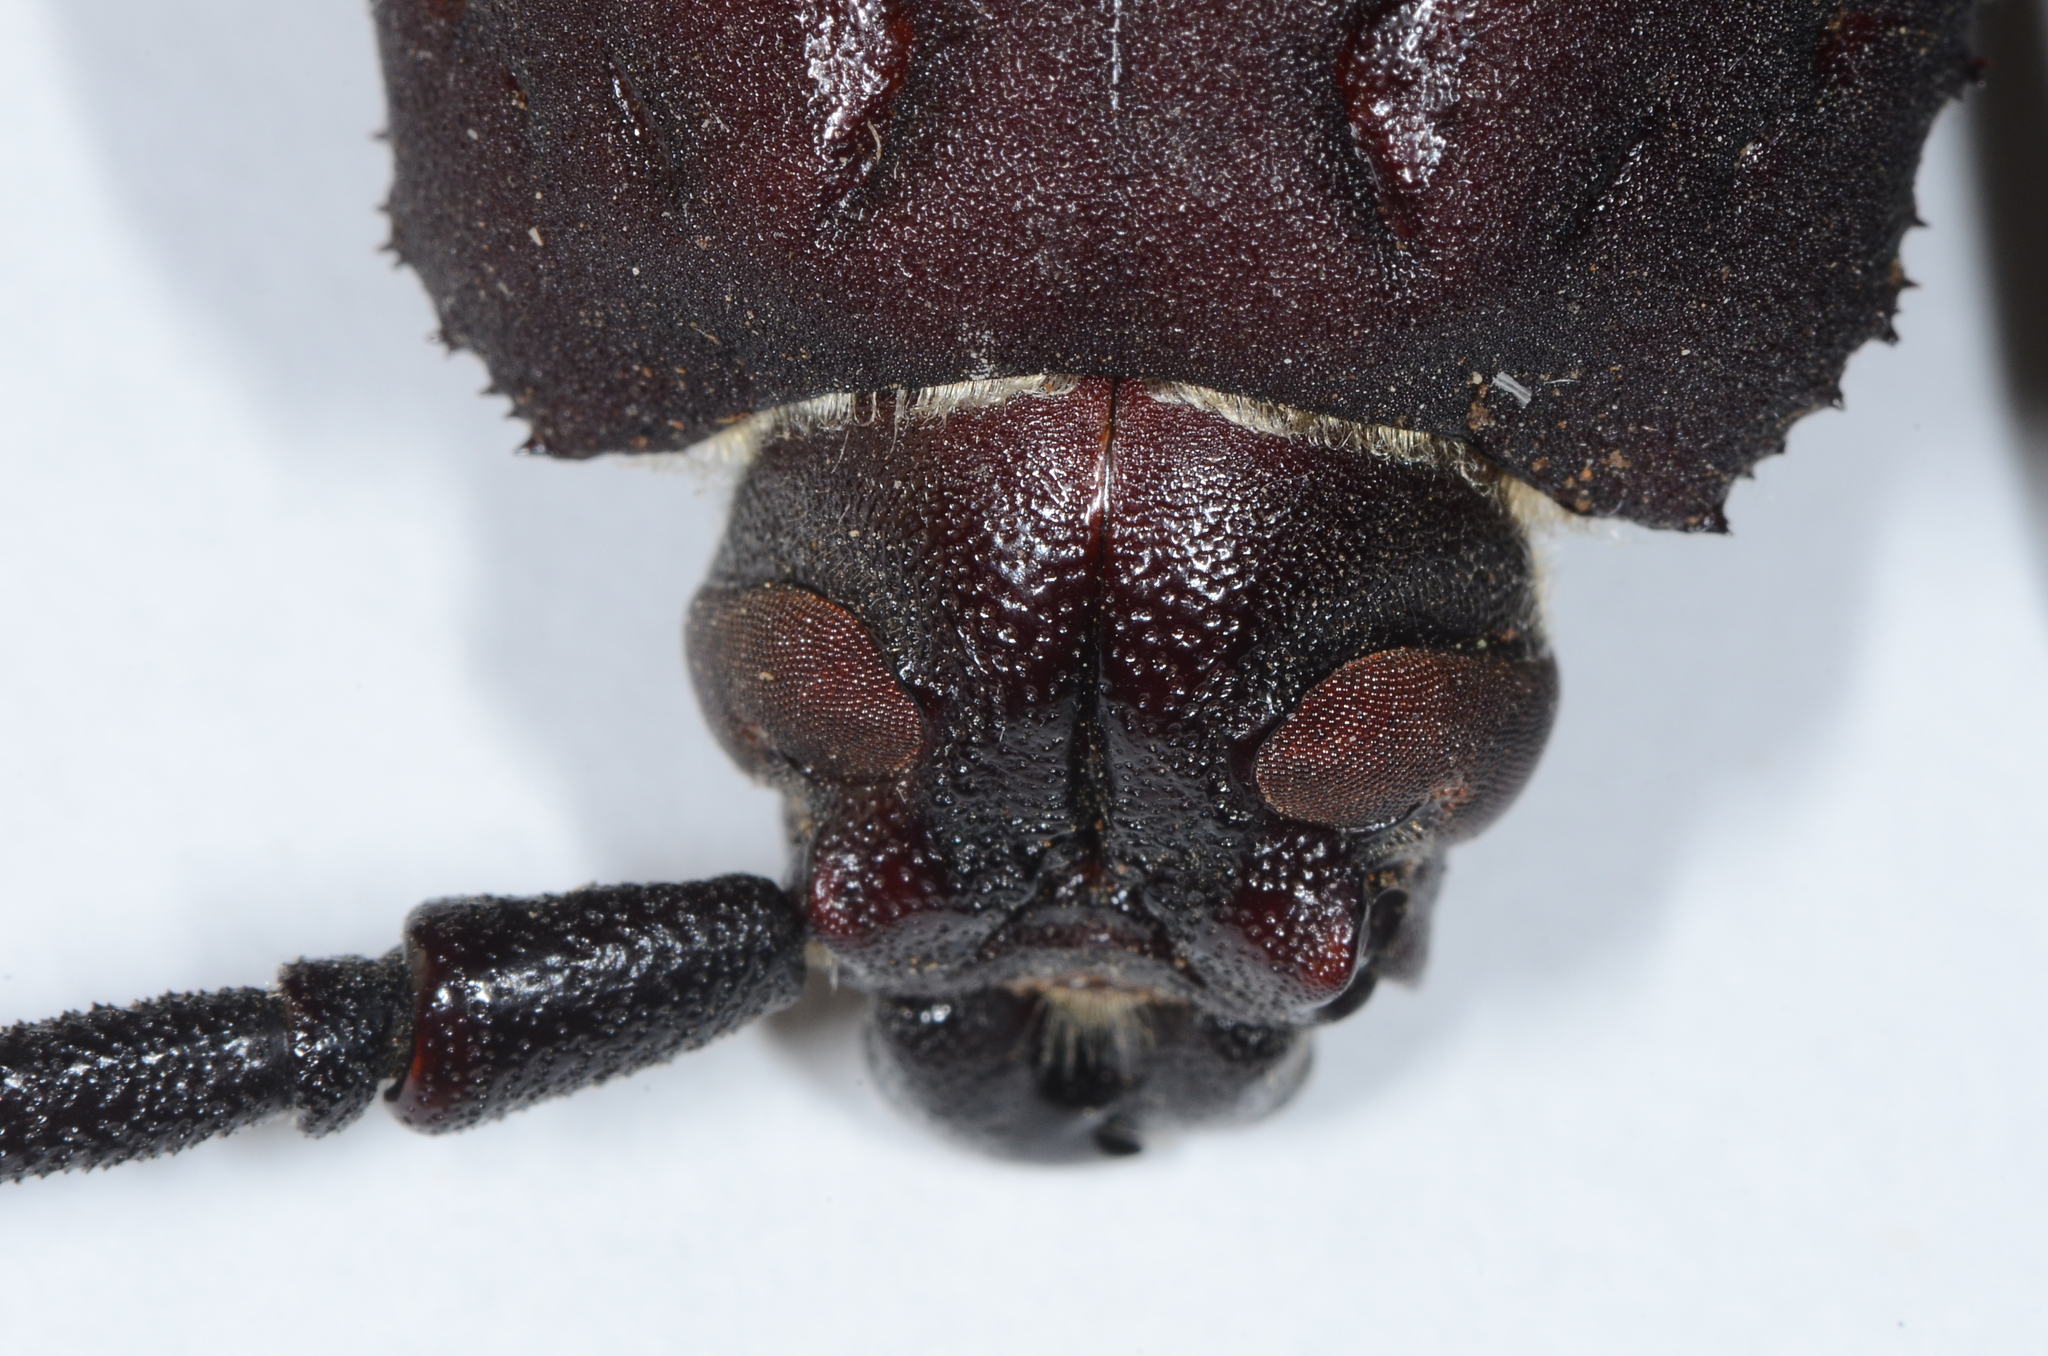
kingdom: Animalia
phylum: Arthropoda
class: Insecta
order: Coleoptera
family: Cerambycidae
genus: Trichocnemis
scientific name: Trichocnemis spiculatus
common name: Long-horned beetle
